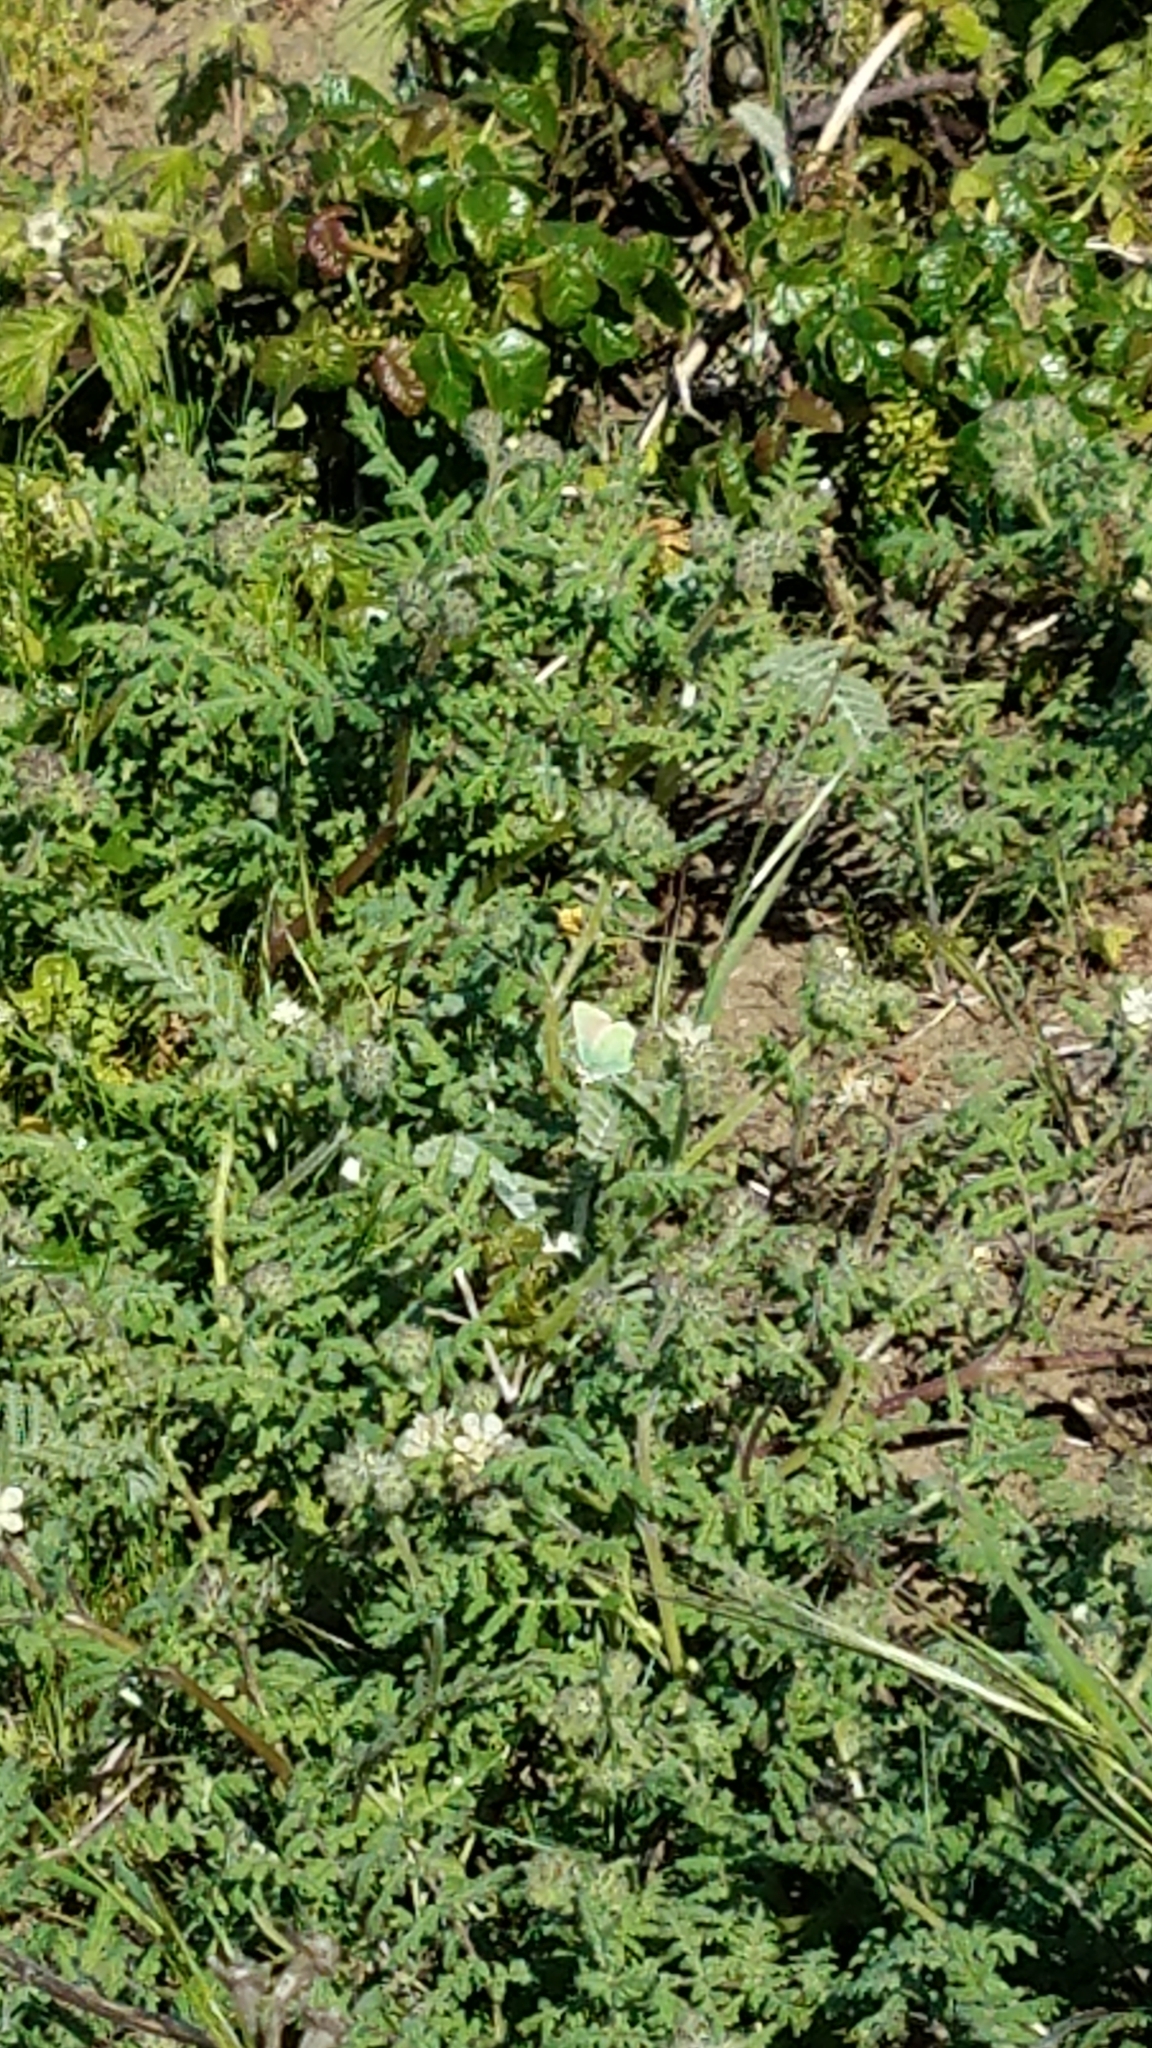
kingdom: Animalia
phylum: Arthropoda
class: Insecta
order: Lepidoptera
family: Lycaenidae
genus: Callophrys
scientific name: Callophrys viridis
